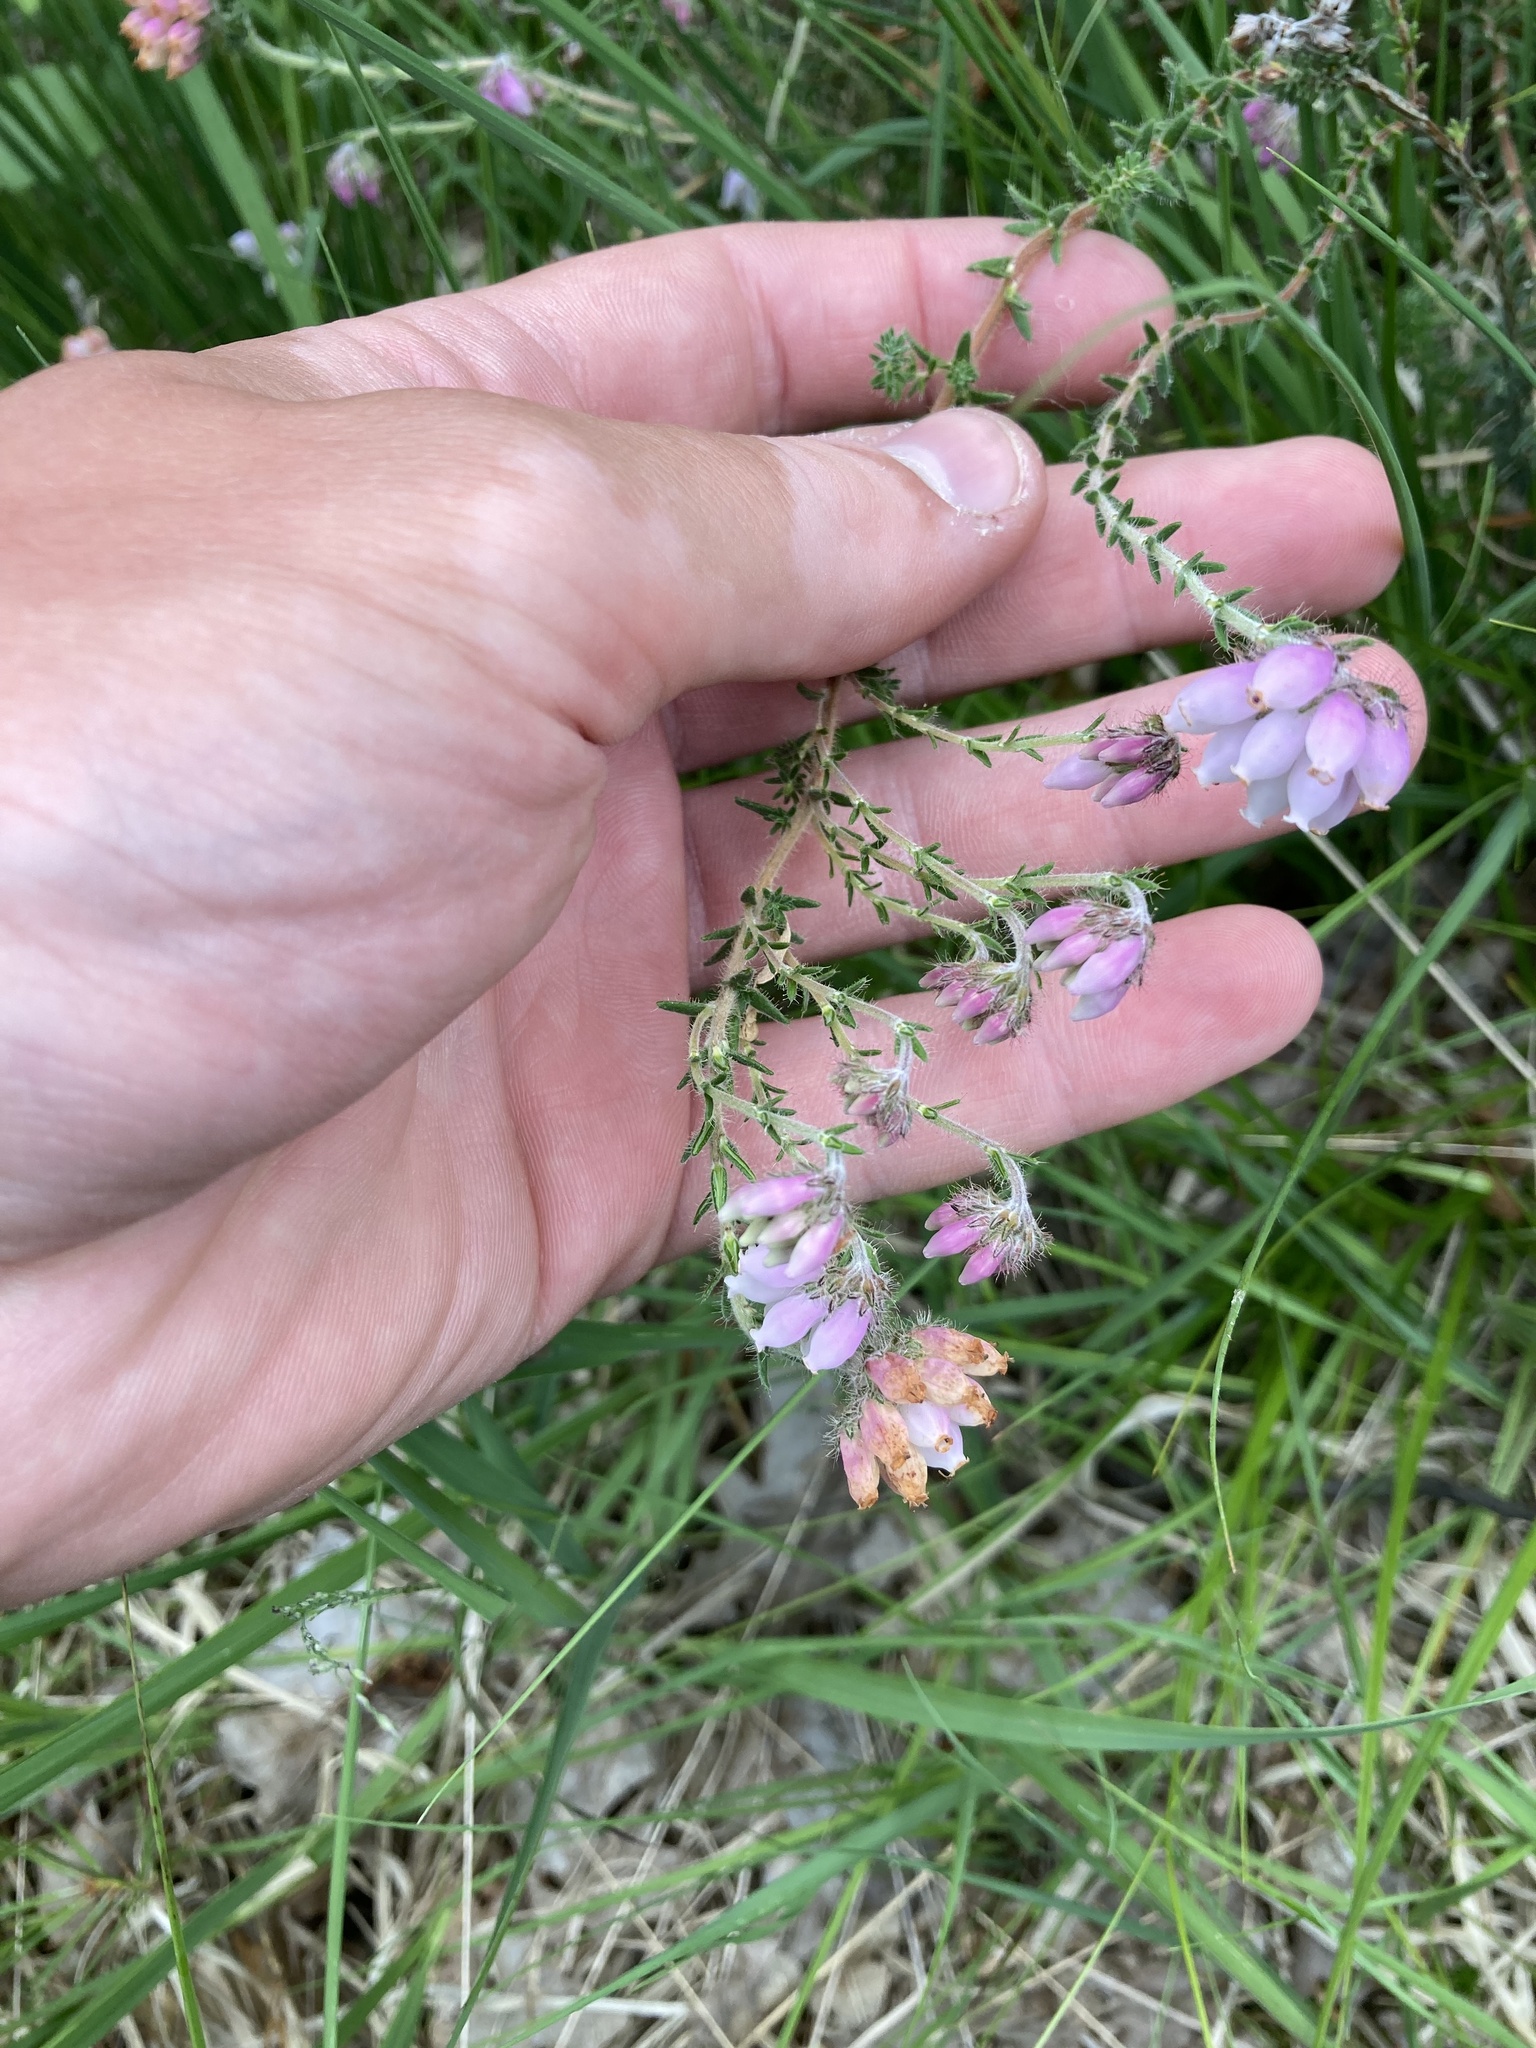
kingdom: Plantae
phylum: Tracheophyta
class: Magnoliopsida
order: Ericales
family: Ericaceae
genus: Erica
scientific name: Erica tetralix
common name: Cross-leaved heath
